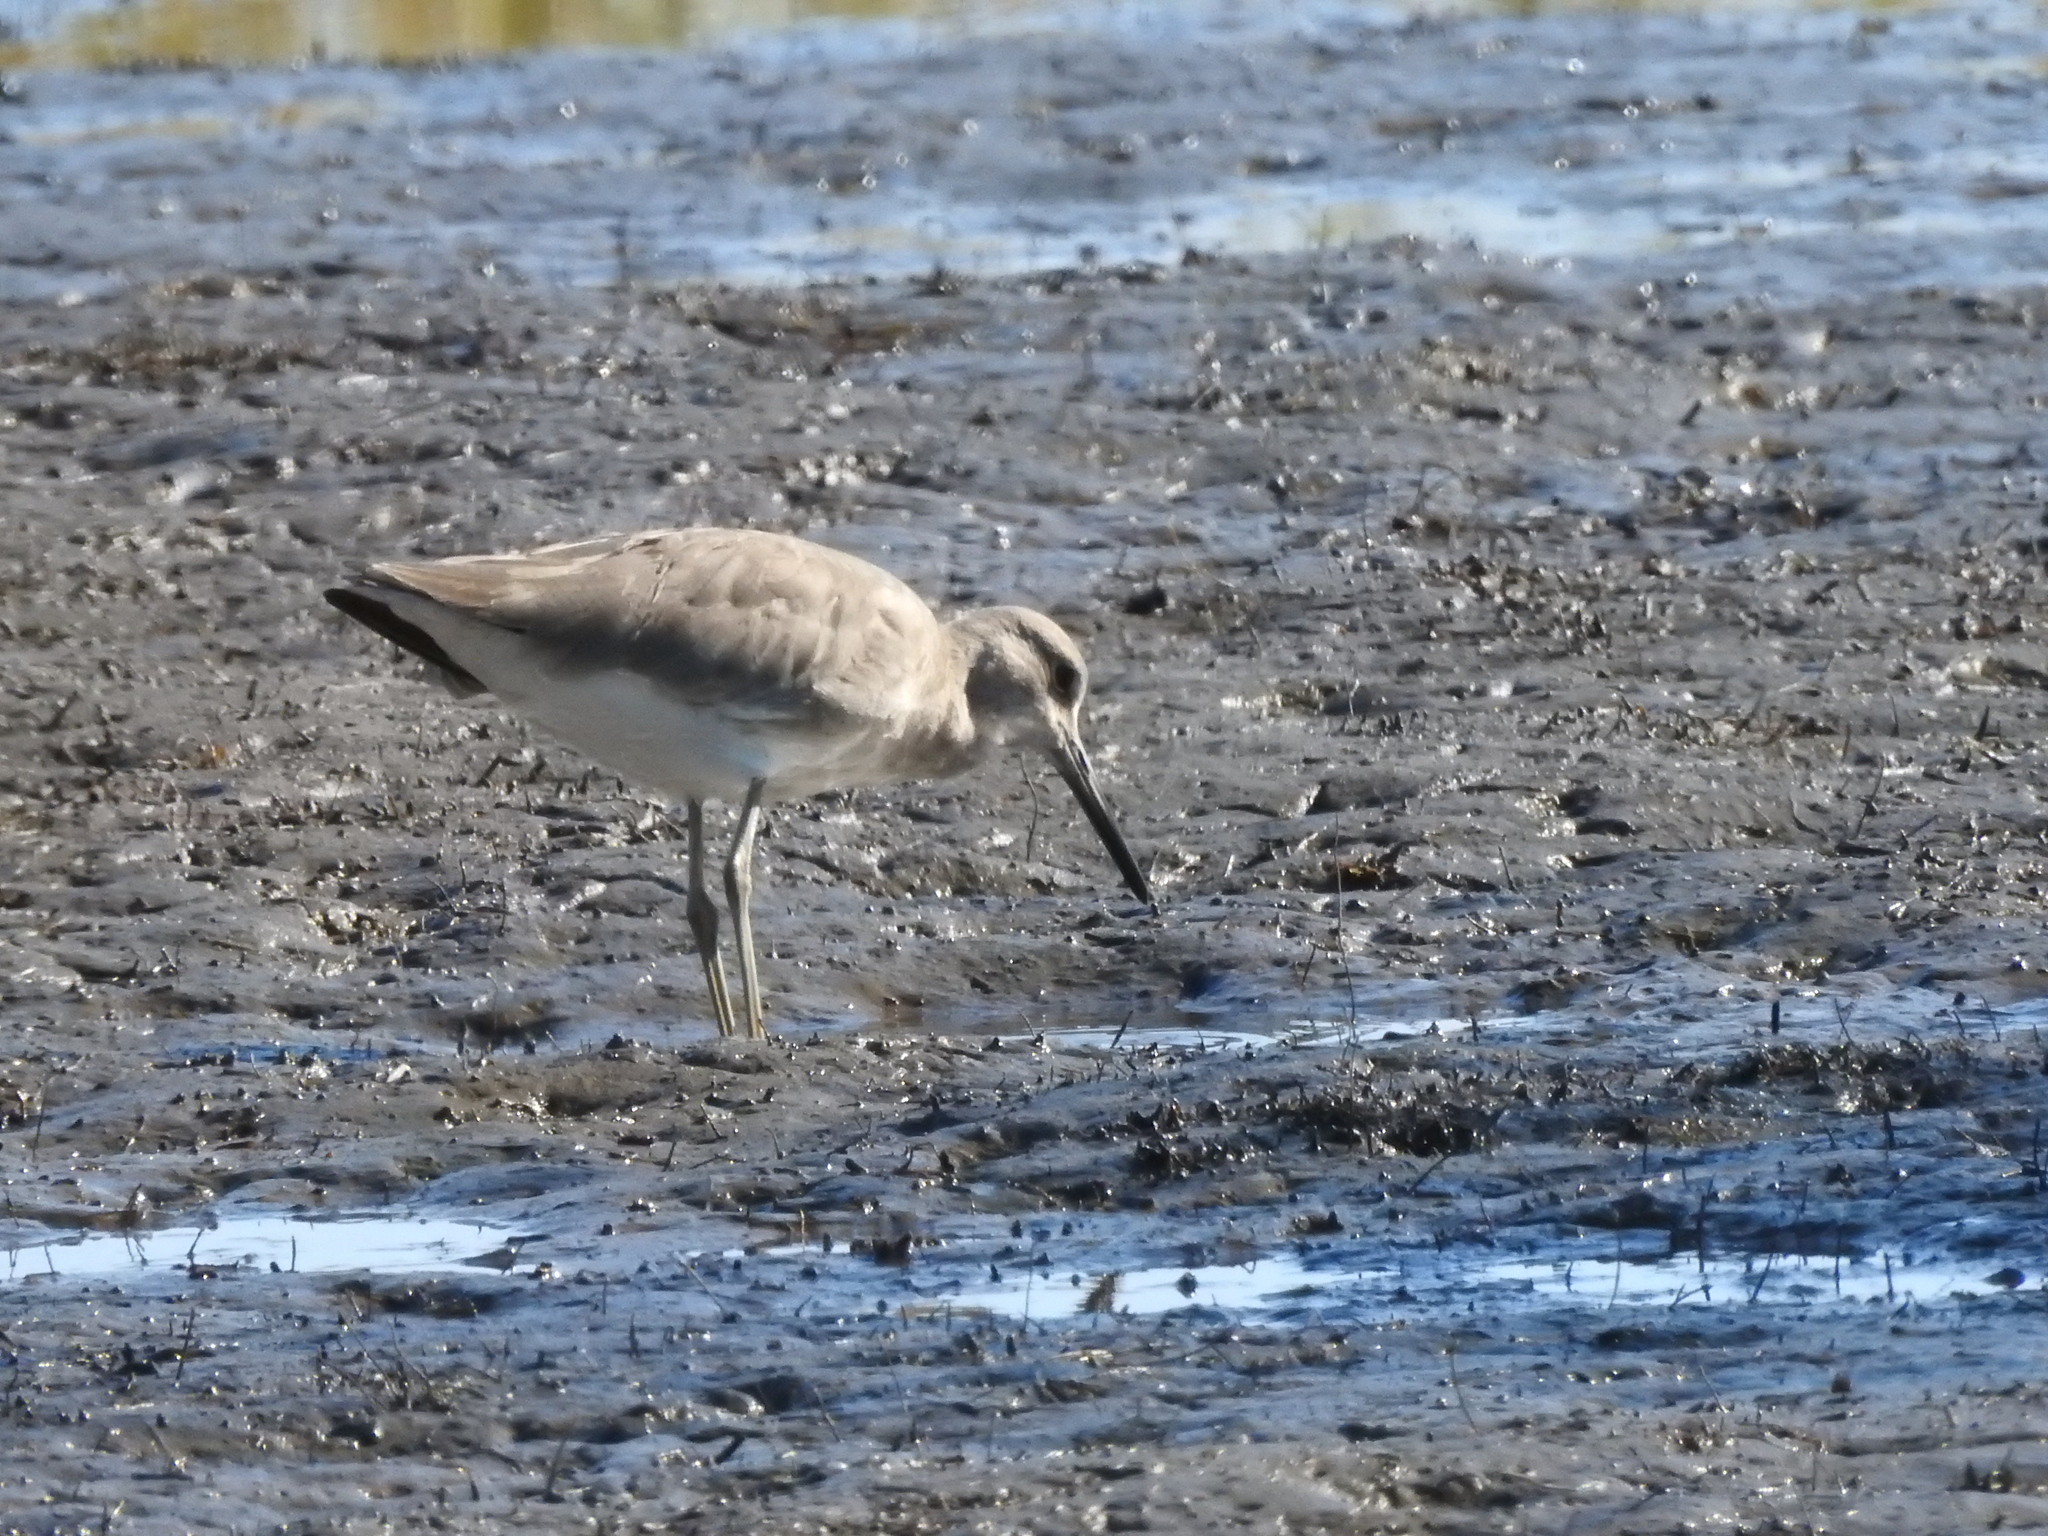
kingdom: Animalia
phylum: Chordata
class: Aves
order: Charadriiformes
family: Scolopacidae
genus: Tringa
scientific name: Tringa semipalmata
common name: Willet
